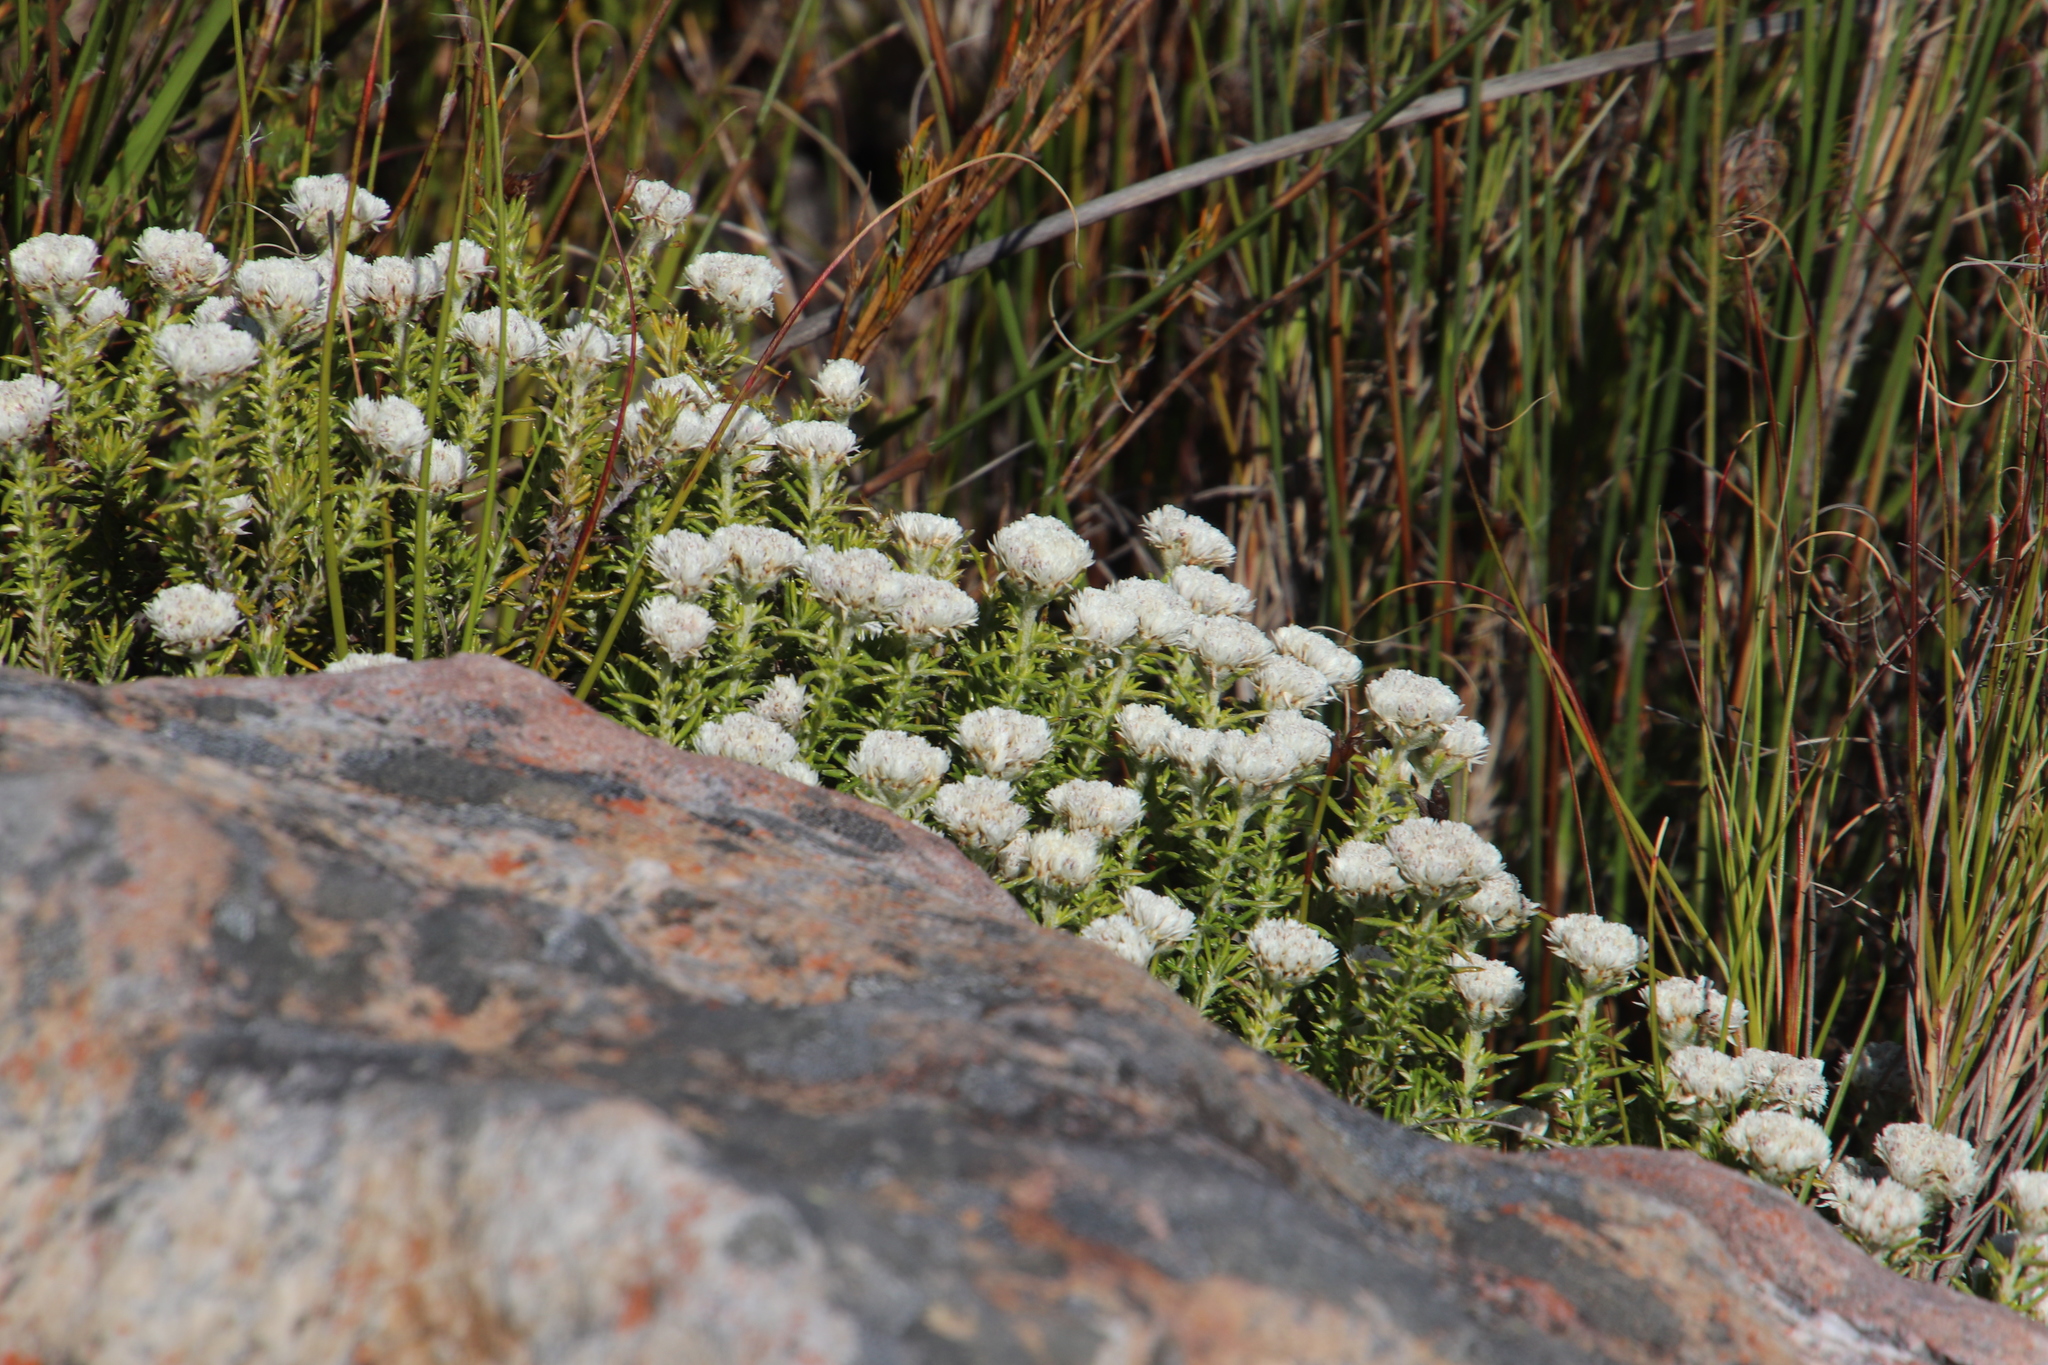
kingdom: Plantae
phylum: Tracheophyta
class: Magnoliopsida
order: Asterales
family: Asteraceae
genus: Metalasia
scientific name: Metalasia compacta
